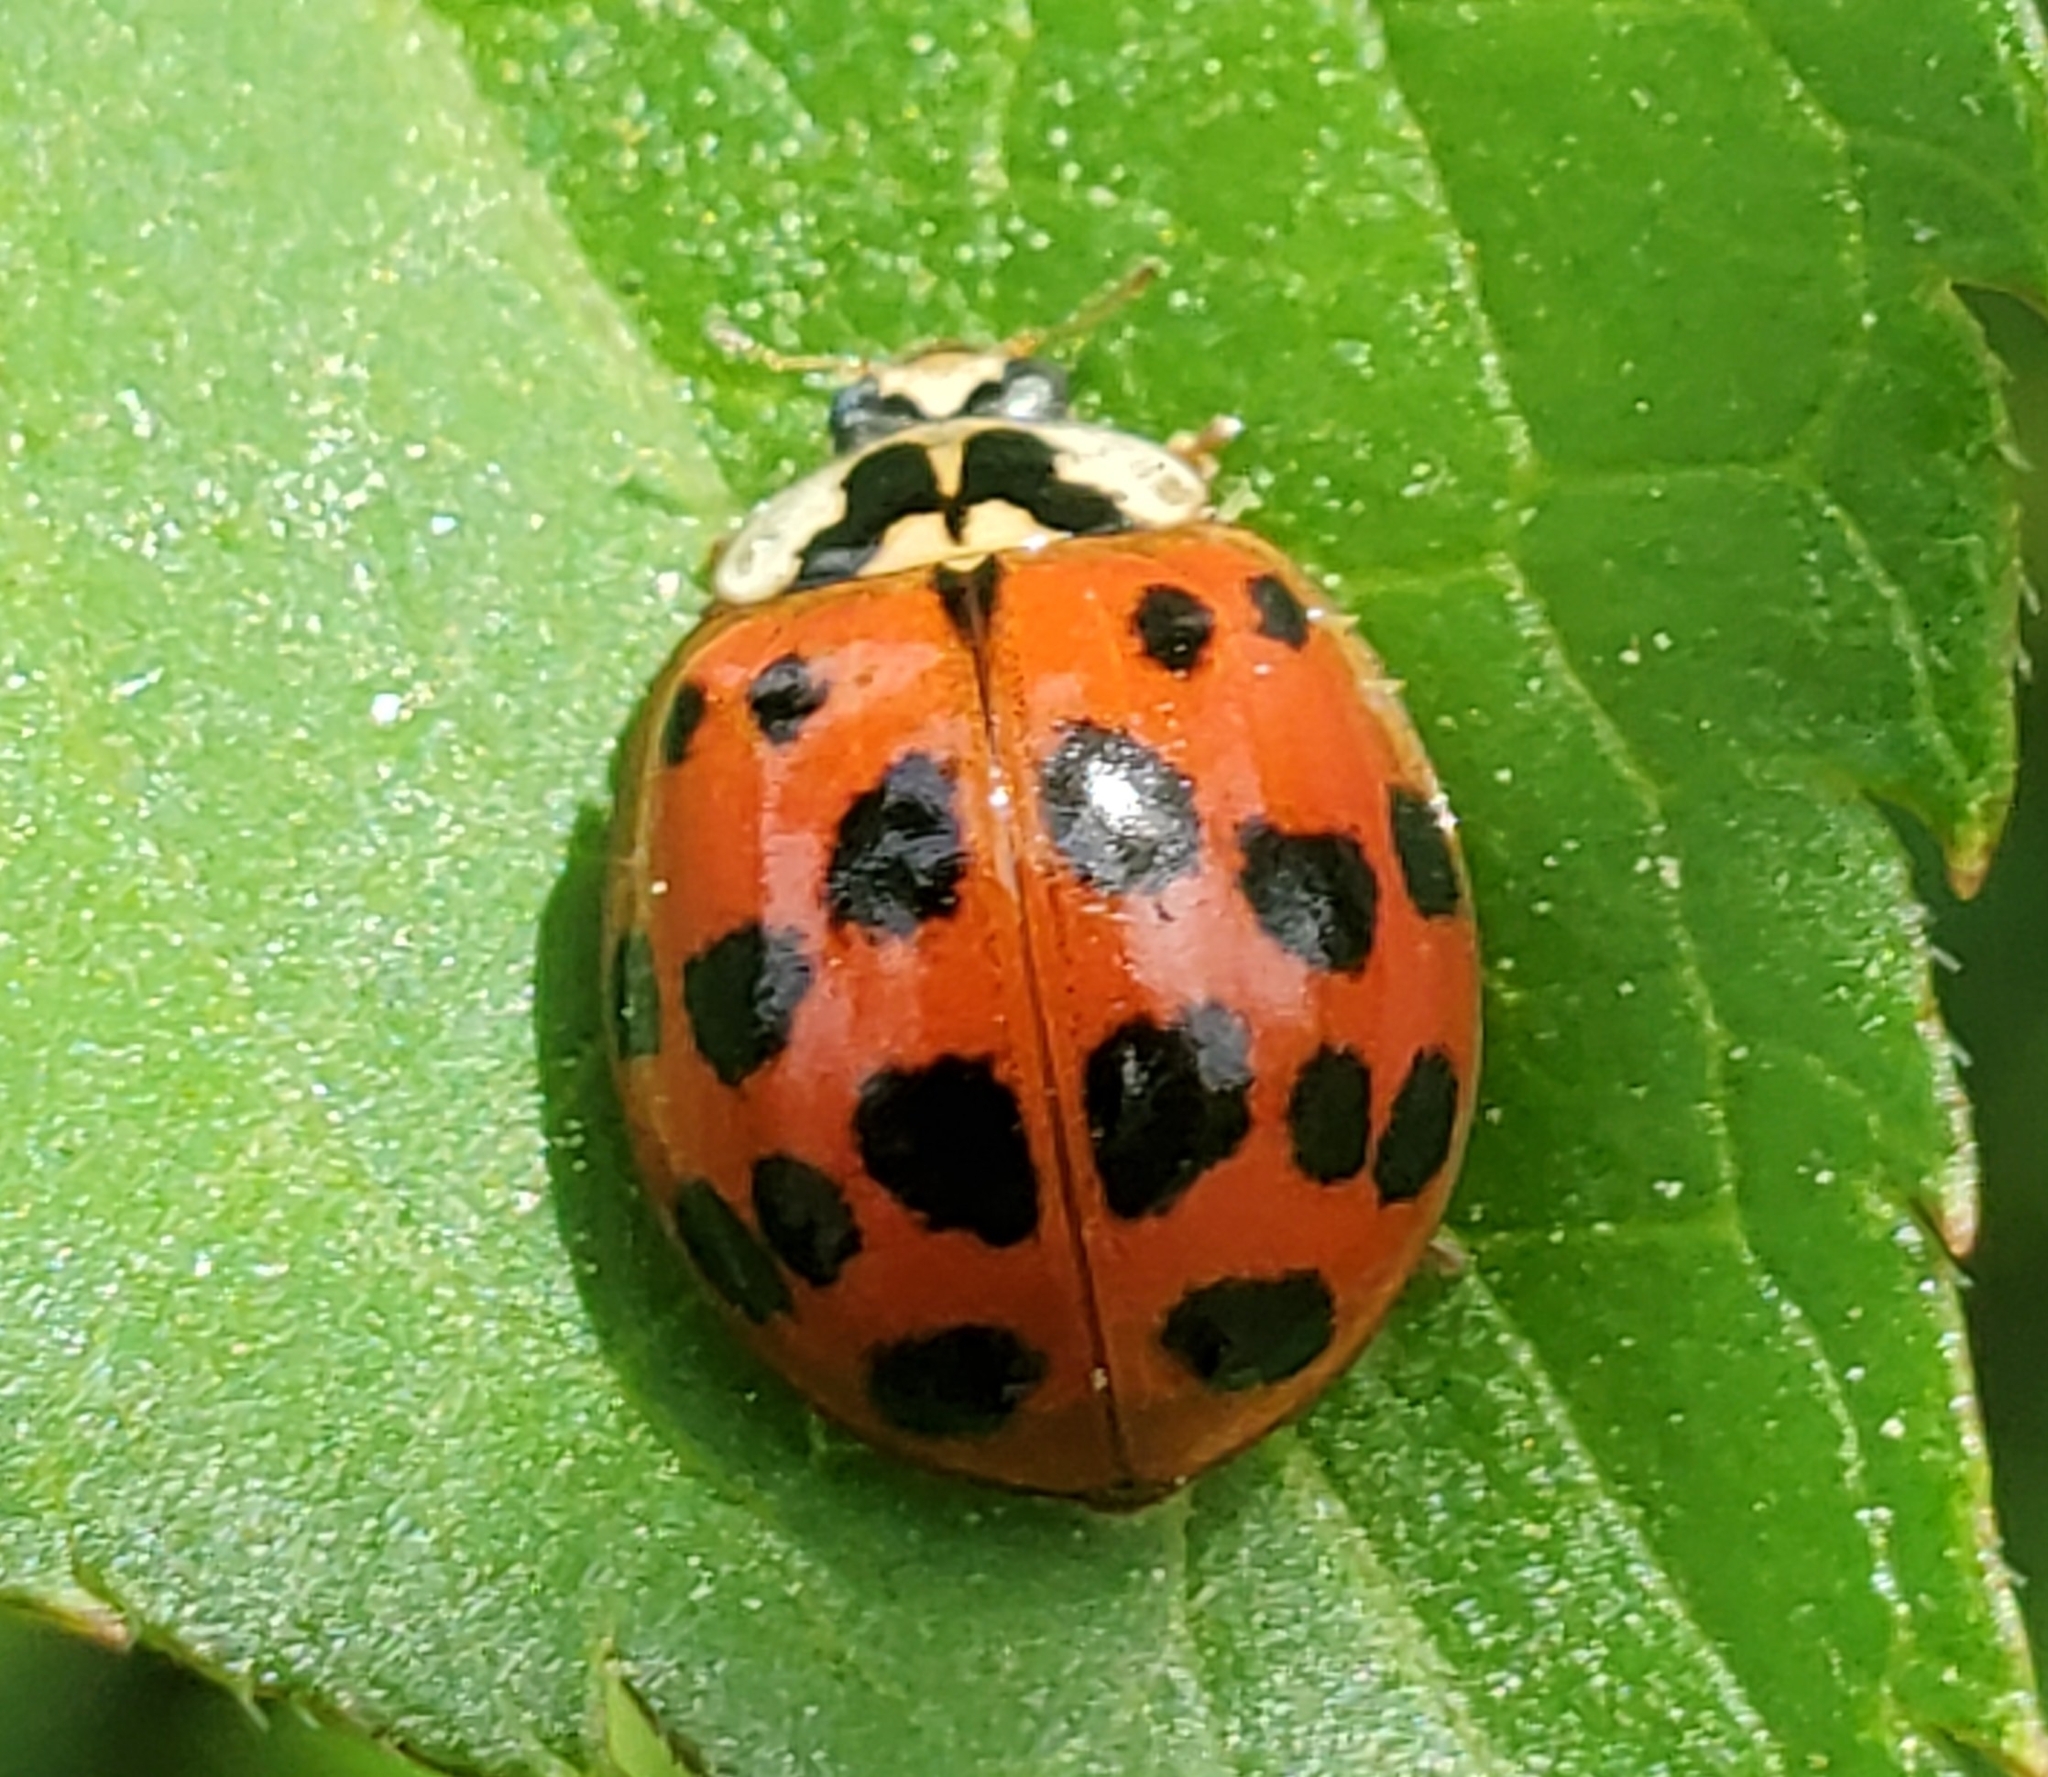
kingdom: Animalia
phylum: Arthropoda
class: Insecta
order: Coleoptera
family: Coccinellidae
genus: Harmonia
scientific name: Harmonia axyridis
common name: Harlequin ladybird
